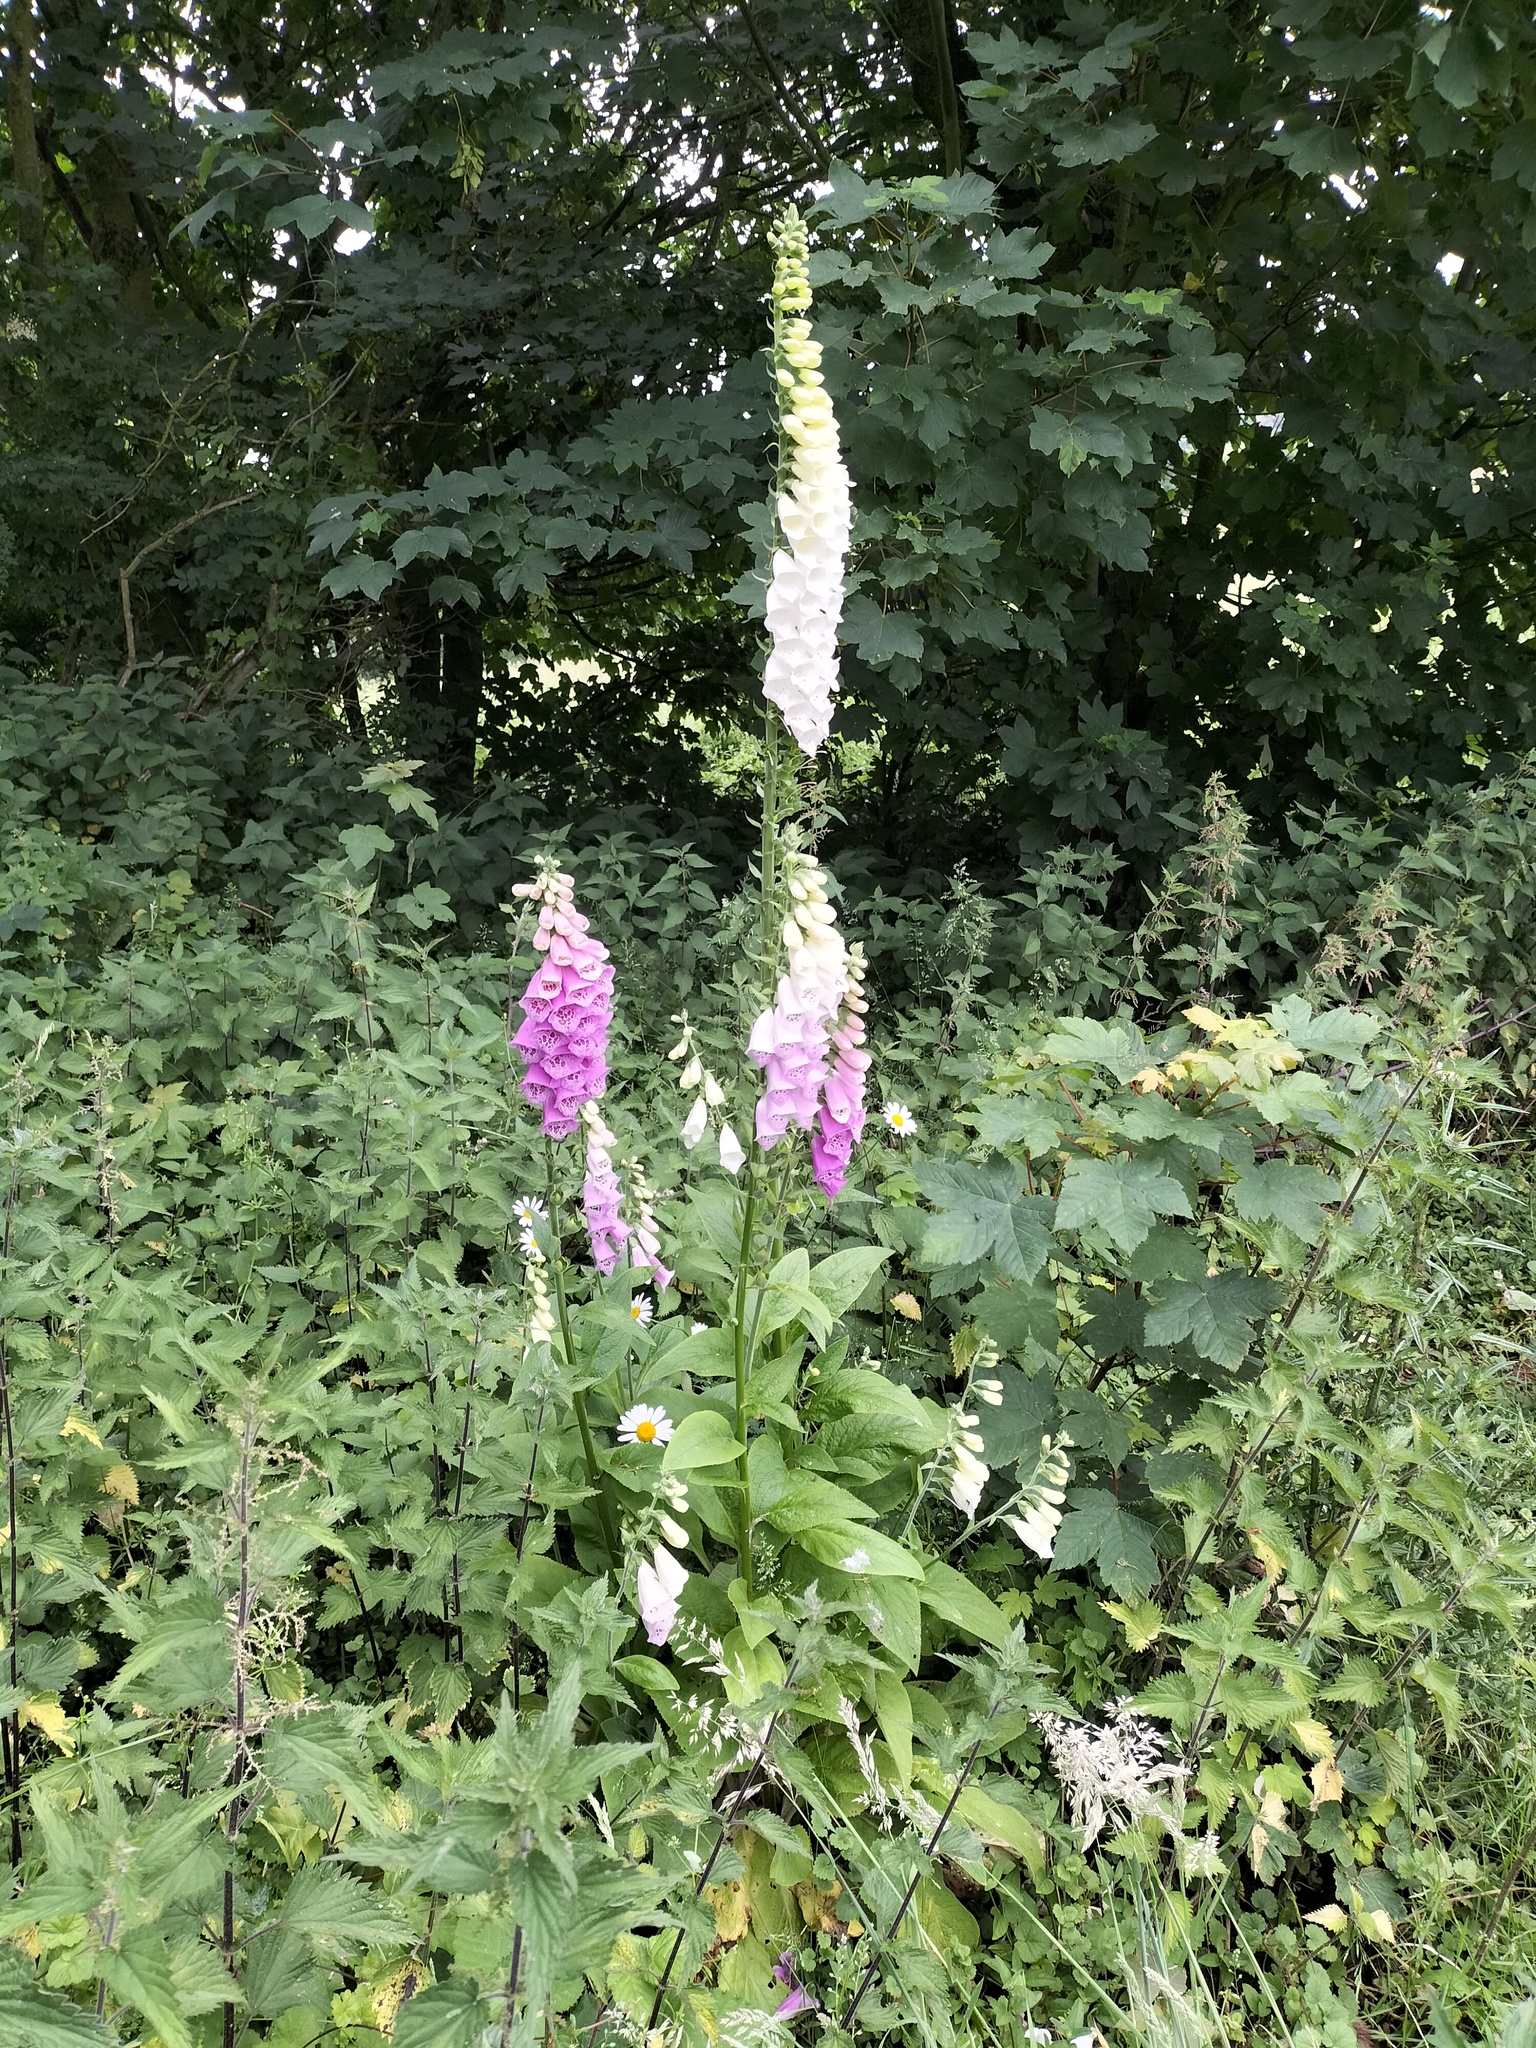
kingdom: Plantae
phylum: Tracheophyta
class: Magnoliopsida
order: Lamiales
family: Plantaginaceae
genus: Digitalis
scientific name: Digitalis purpurea
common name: Foxglove
